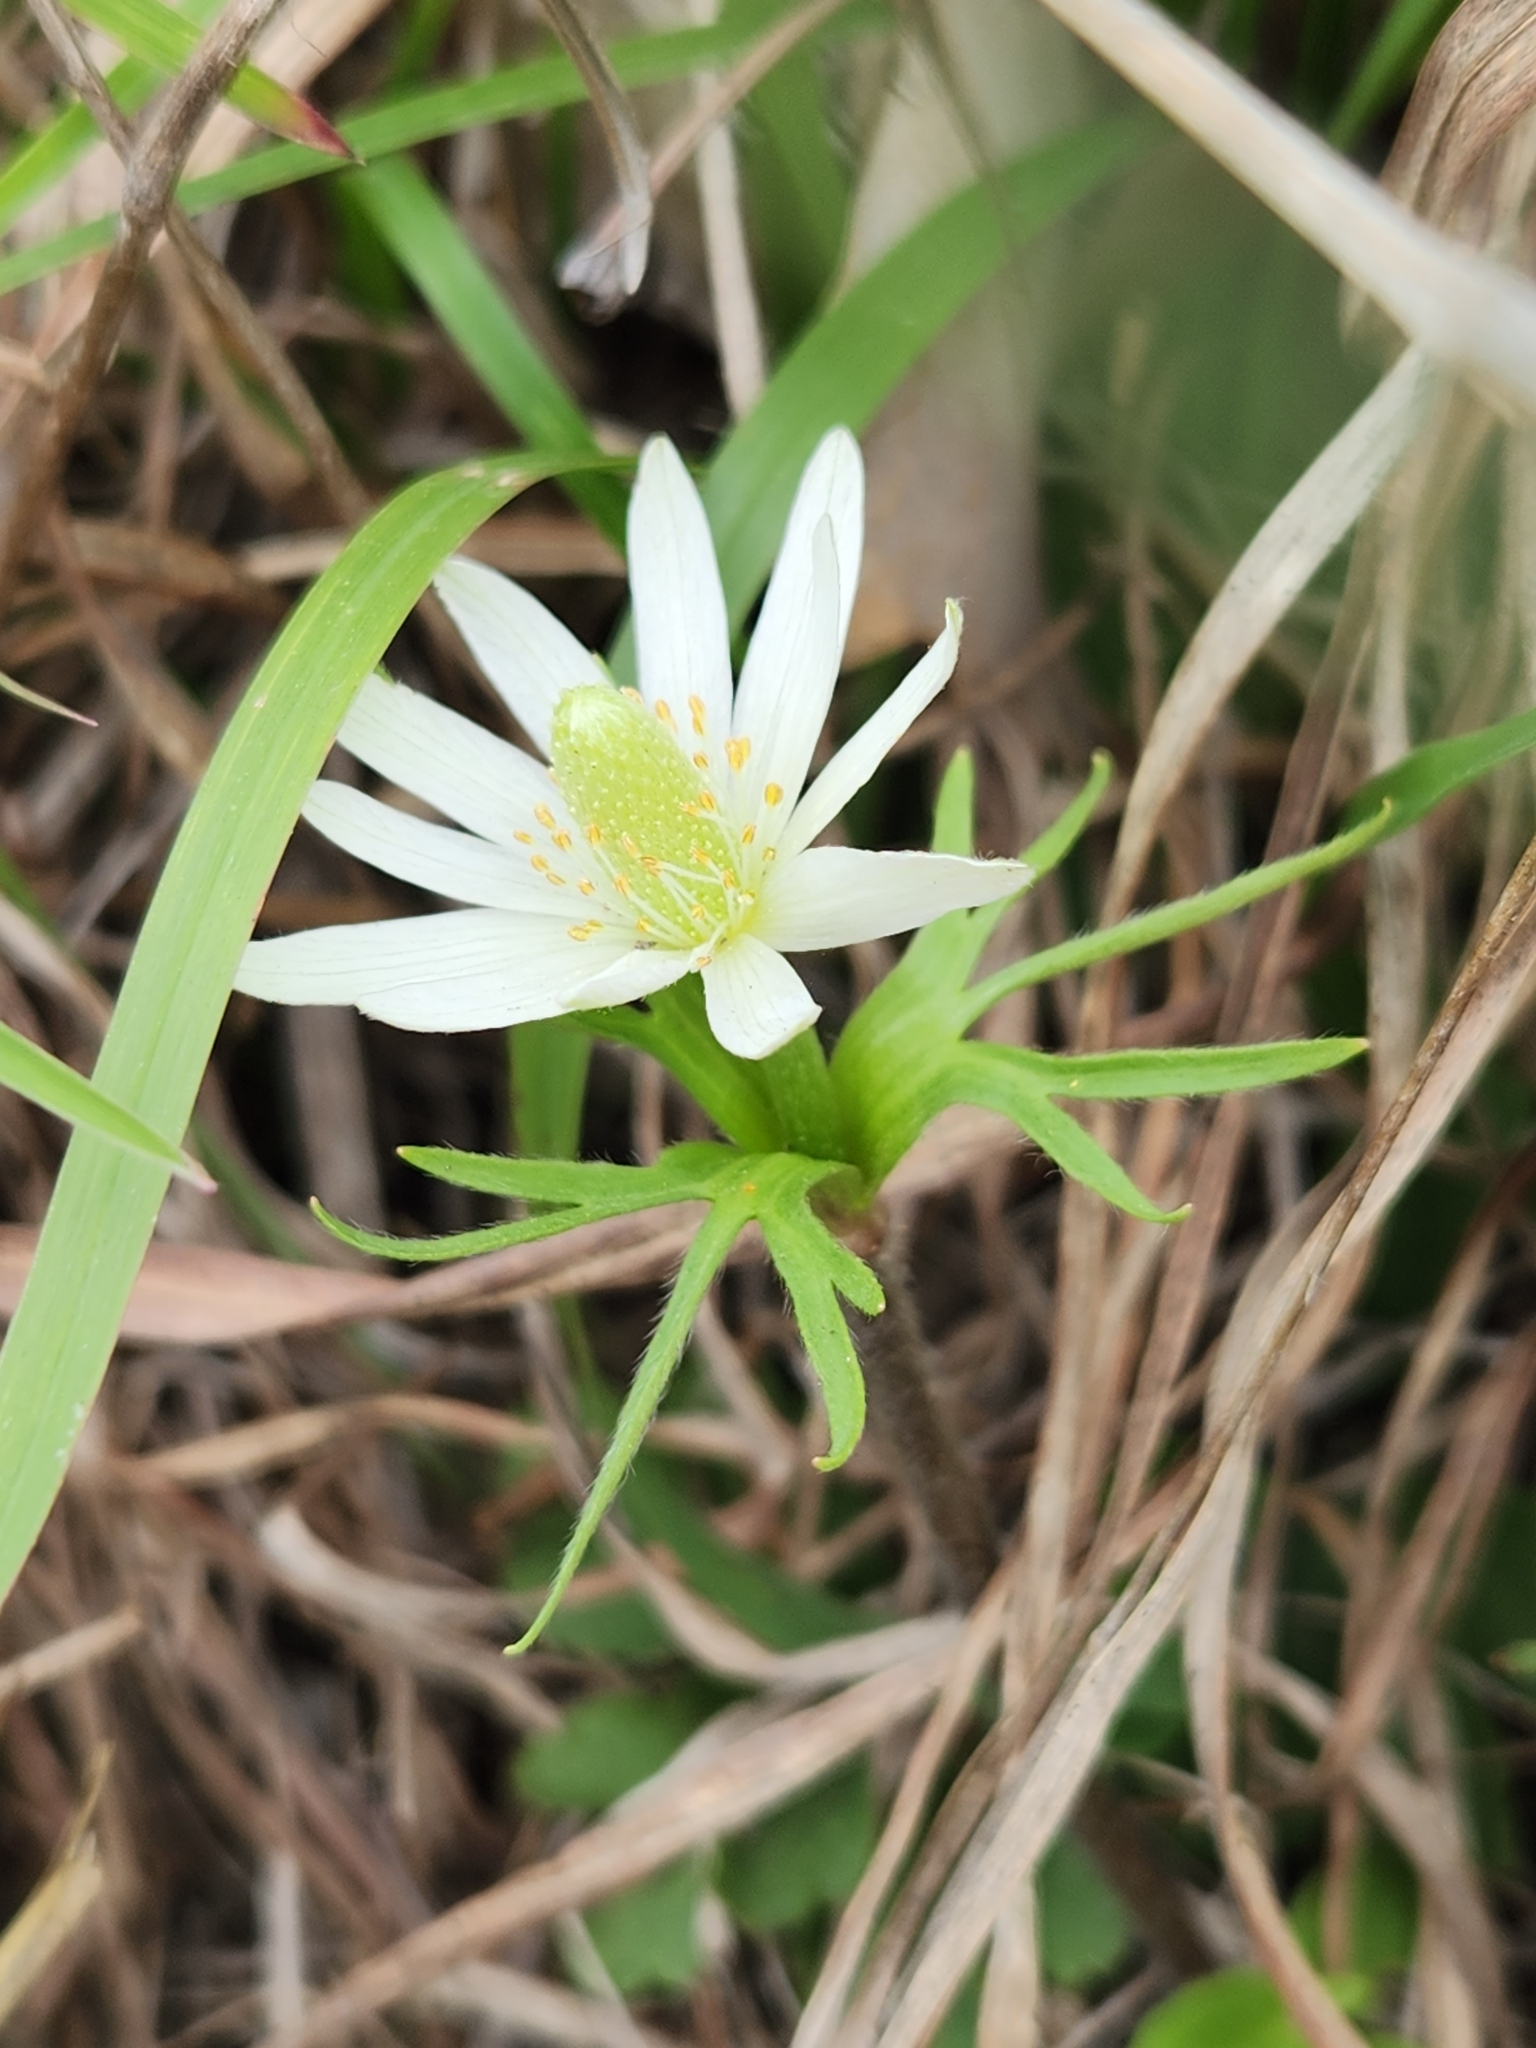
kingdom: Plantae
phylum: Tracheophyta
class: Magnoliopsida
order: Ranunculales
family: Ranunculaceae
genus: Anemone
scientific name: Anemone berlandieri
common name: Ten-petal anemone
